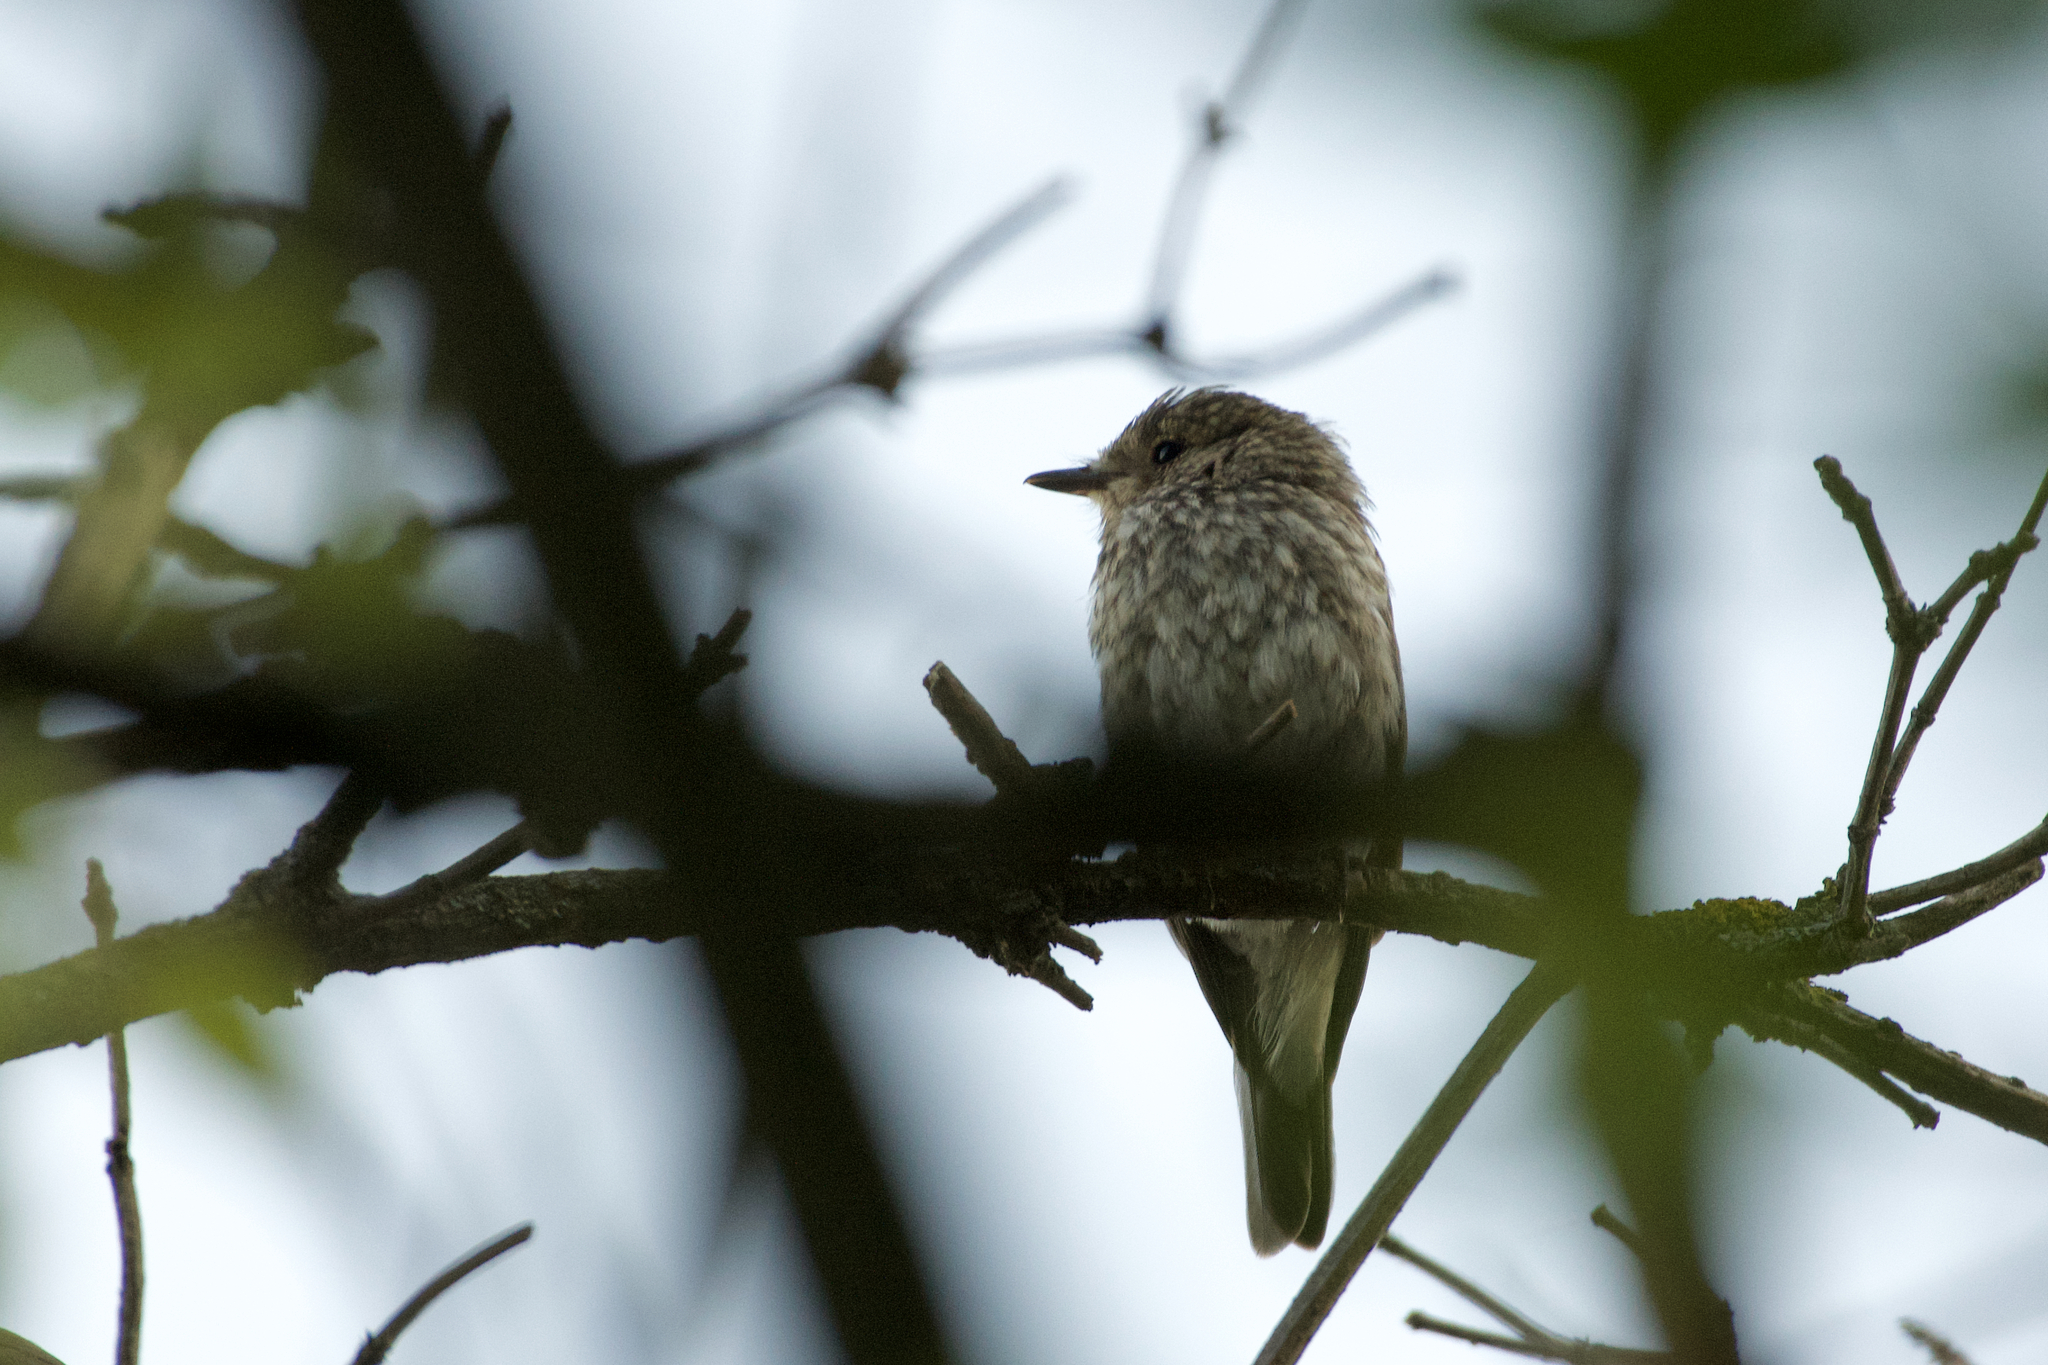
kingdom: Animalia
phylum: Chordata
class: Aves
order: Passeriformes
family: Muscicapidae
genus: Muscicapa
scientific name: Muscicapa striata
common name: Spotted flycatcher
